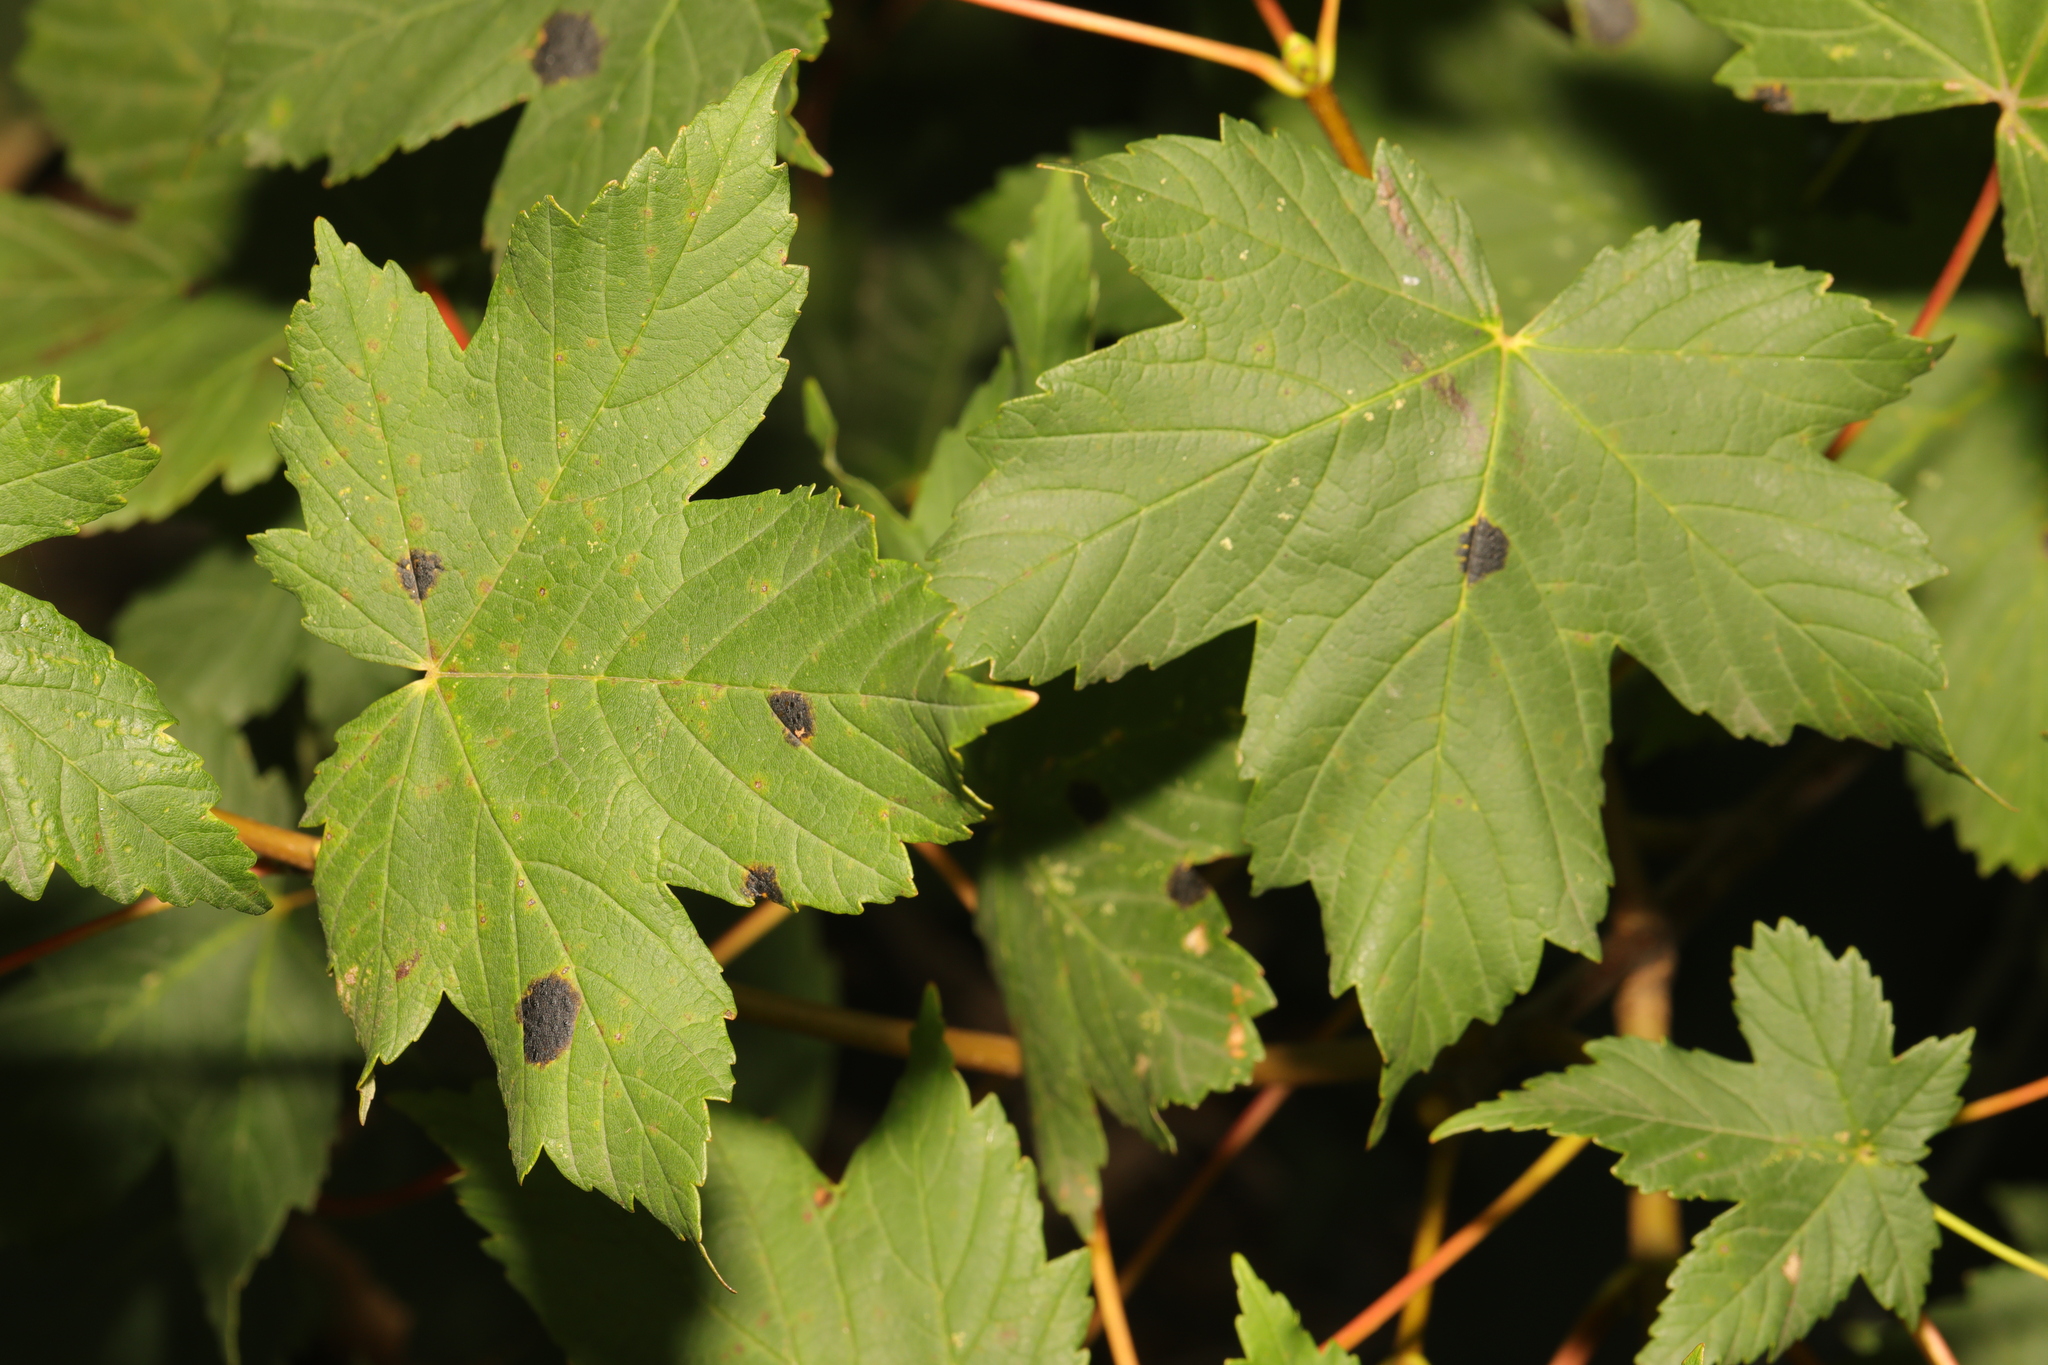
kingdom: Plantae
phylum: Tracheophyta
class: Magnoliopsida
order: Sapindales
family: Sapindaceae
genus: Acer
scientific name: Acer pseudoplatanus
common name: Sycamore
